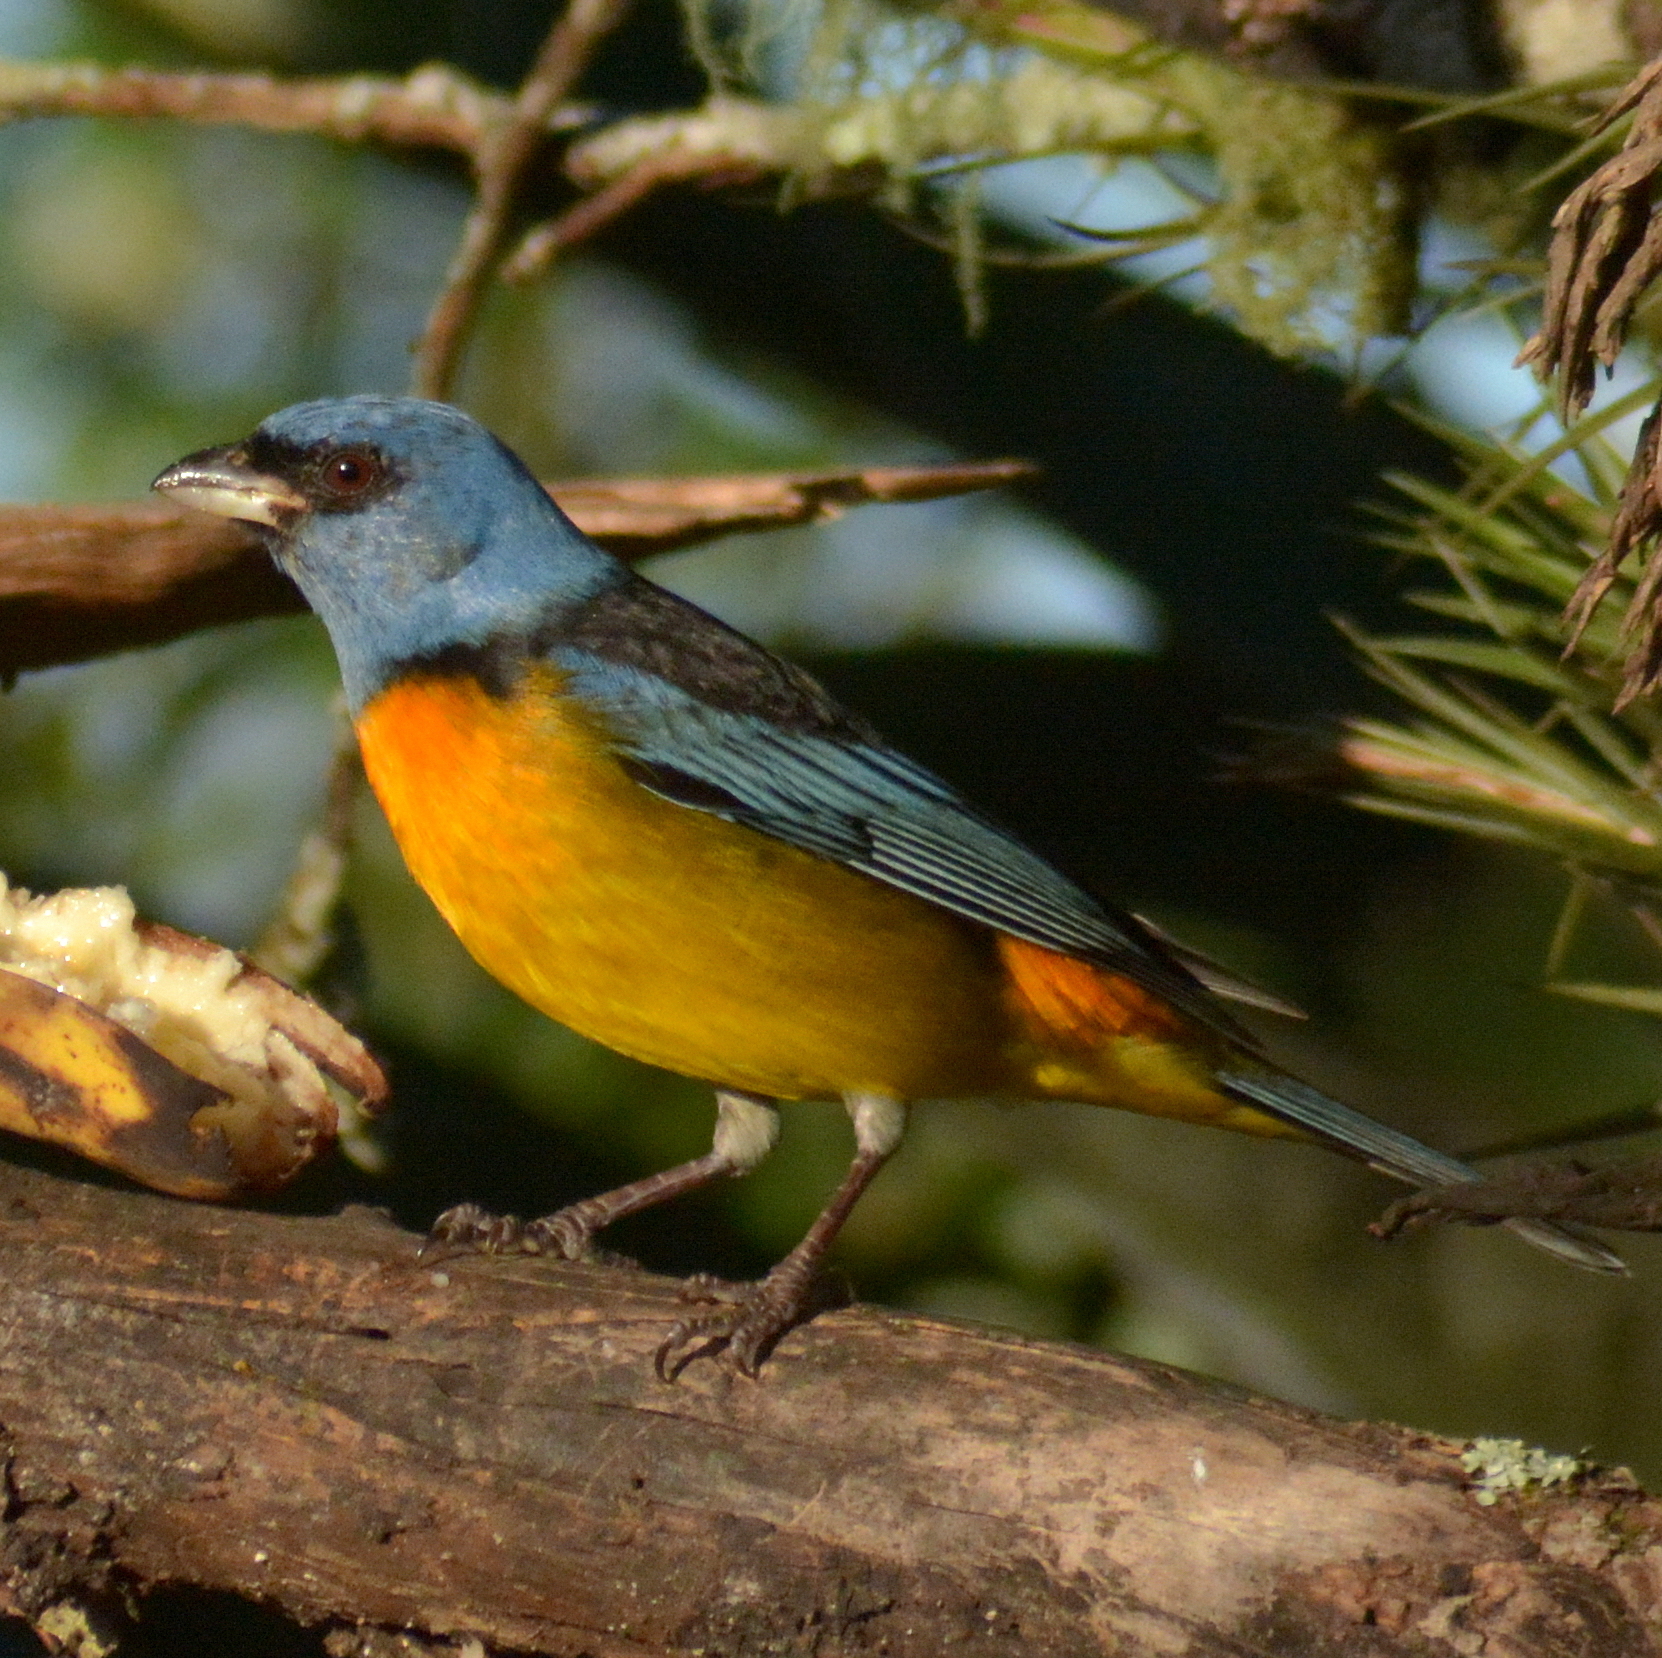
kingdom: Animalia
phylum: Chordata
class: Aves
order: Passeriformes
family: Thraupidae
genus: Rauenia
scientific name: Rauenia bonariensis
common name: Blue-and-yellow tanager
